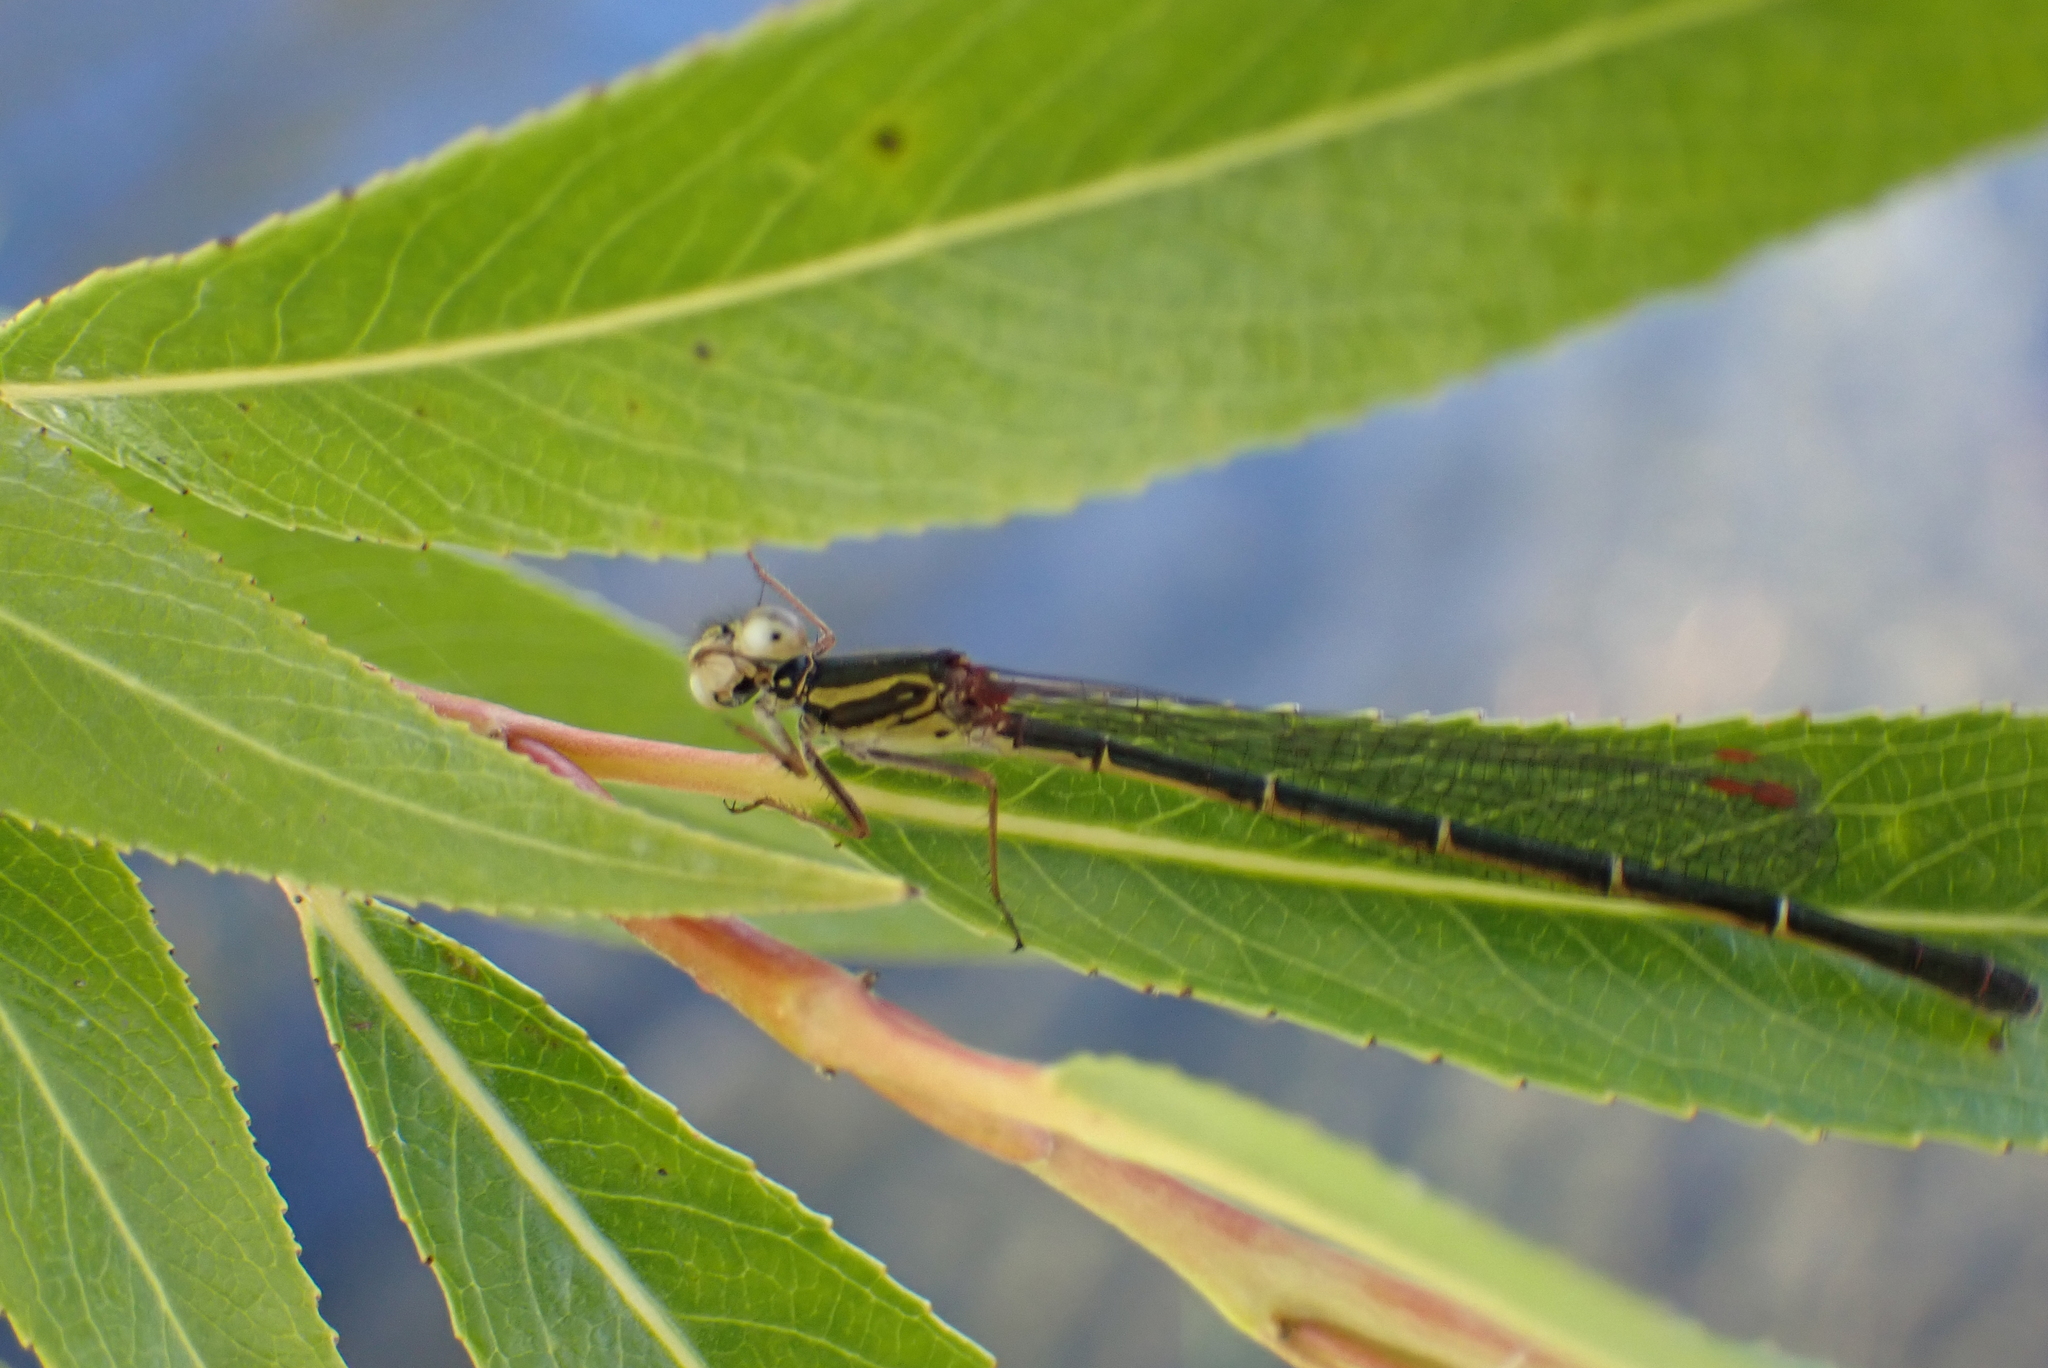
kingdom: Animalia
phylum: Arthropoda
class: Insecta
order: Odonata
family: Coenagrionidae
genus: Xanthocnemis
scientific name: Xanthocnemis zealandica
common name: Common redcoat damselfly
